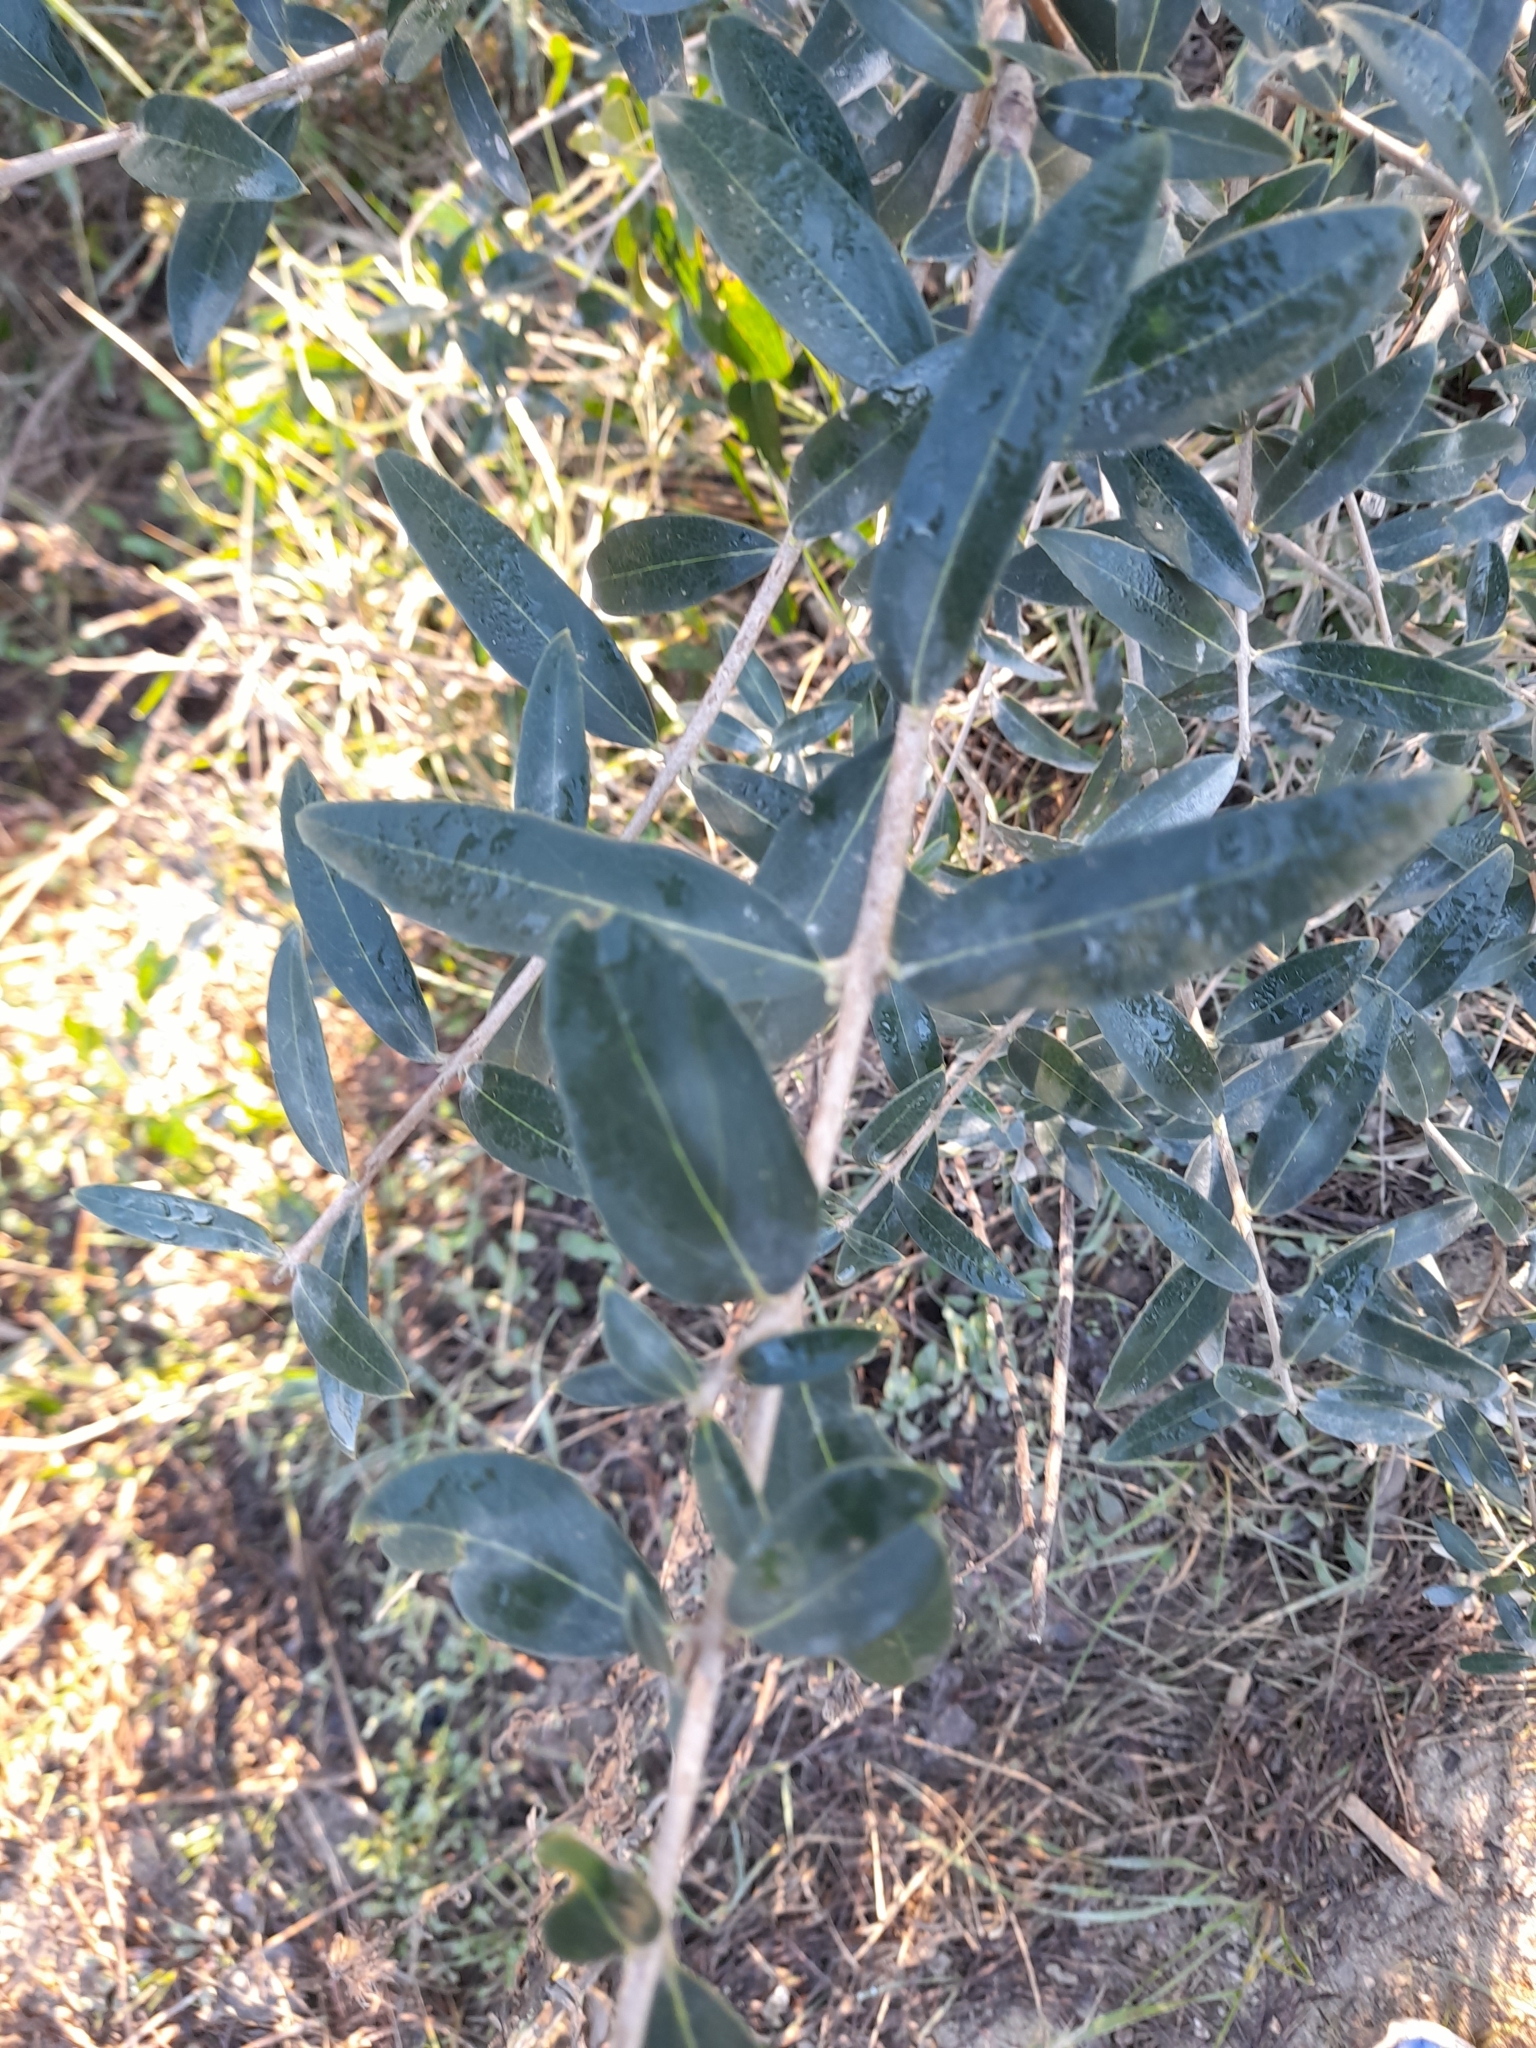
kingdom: Plantae
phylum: Tracheophyta
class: Magnoliopsida
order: Lamiales
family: Oleaceae
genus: Phillyrea
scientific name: Phillyrea latifolia
